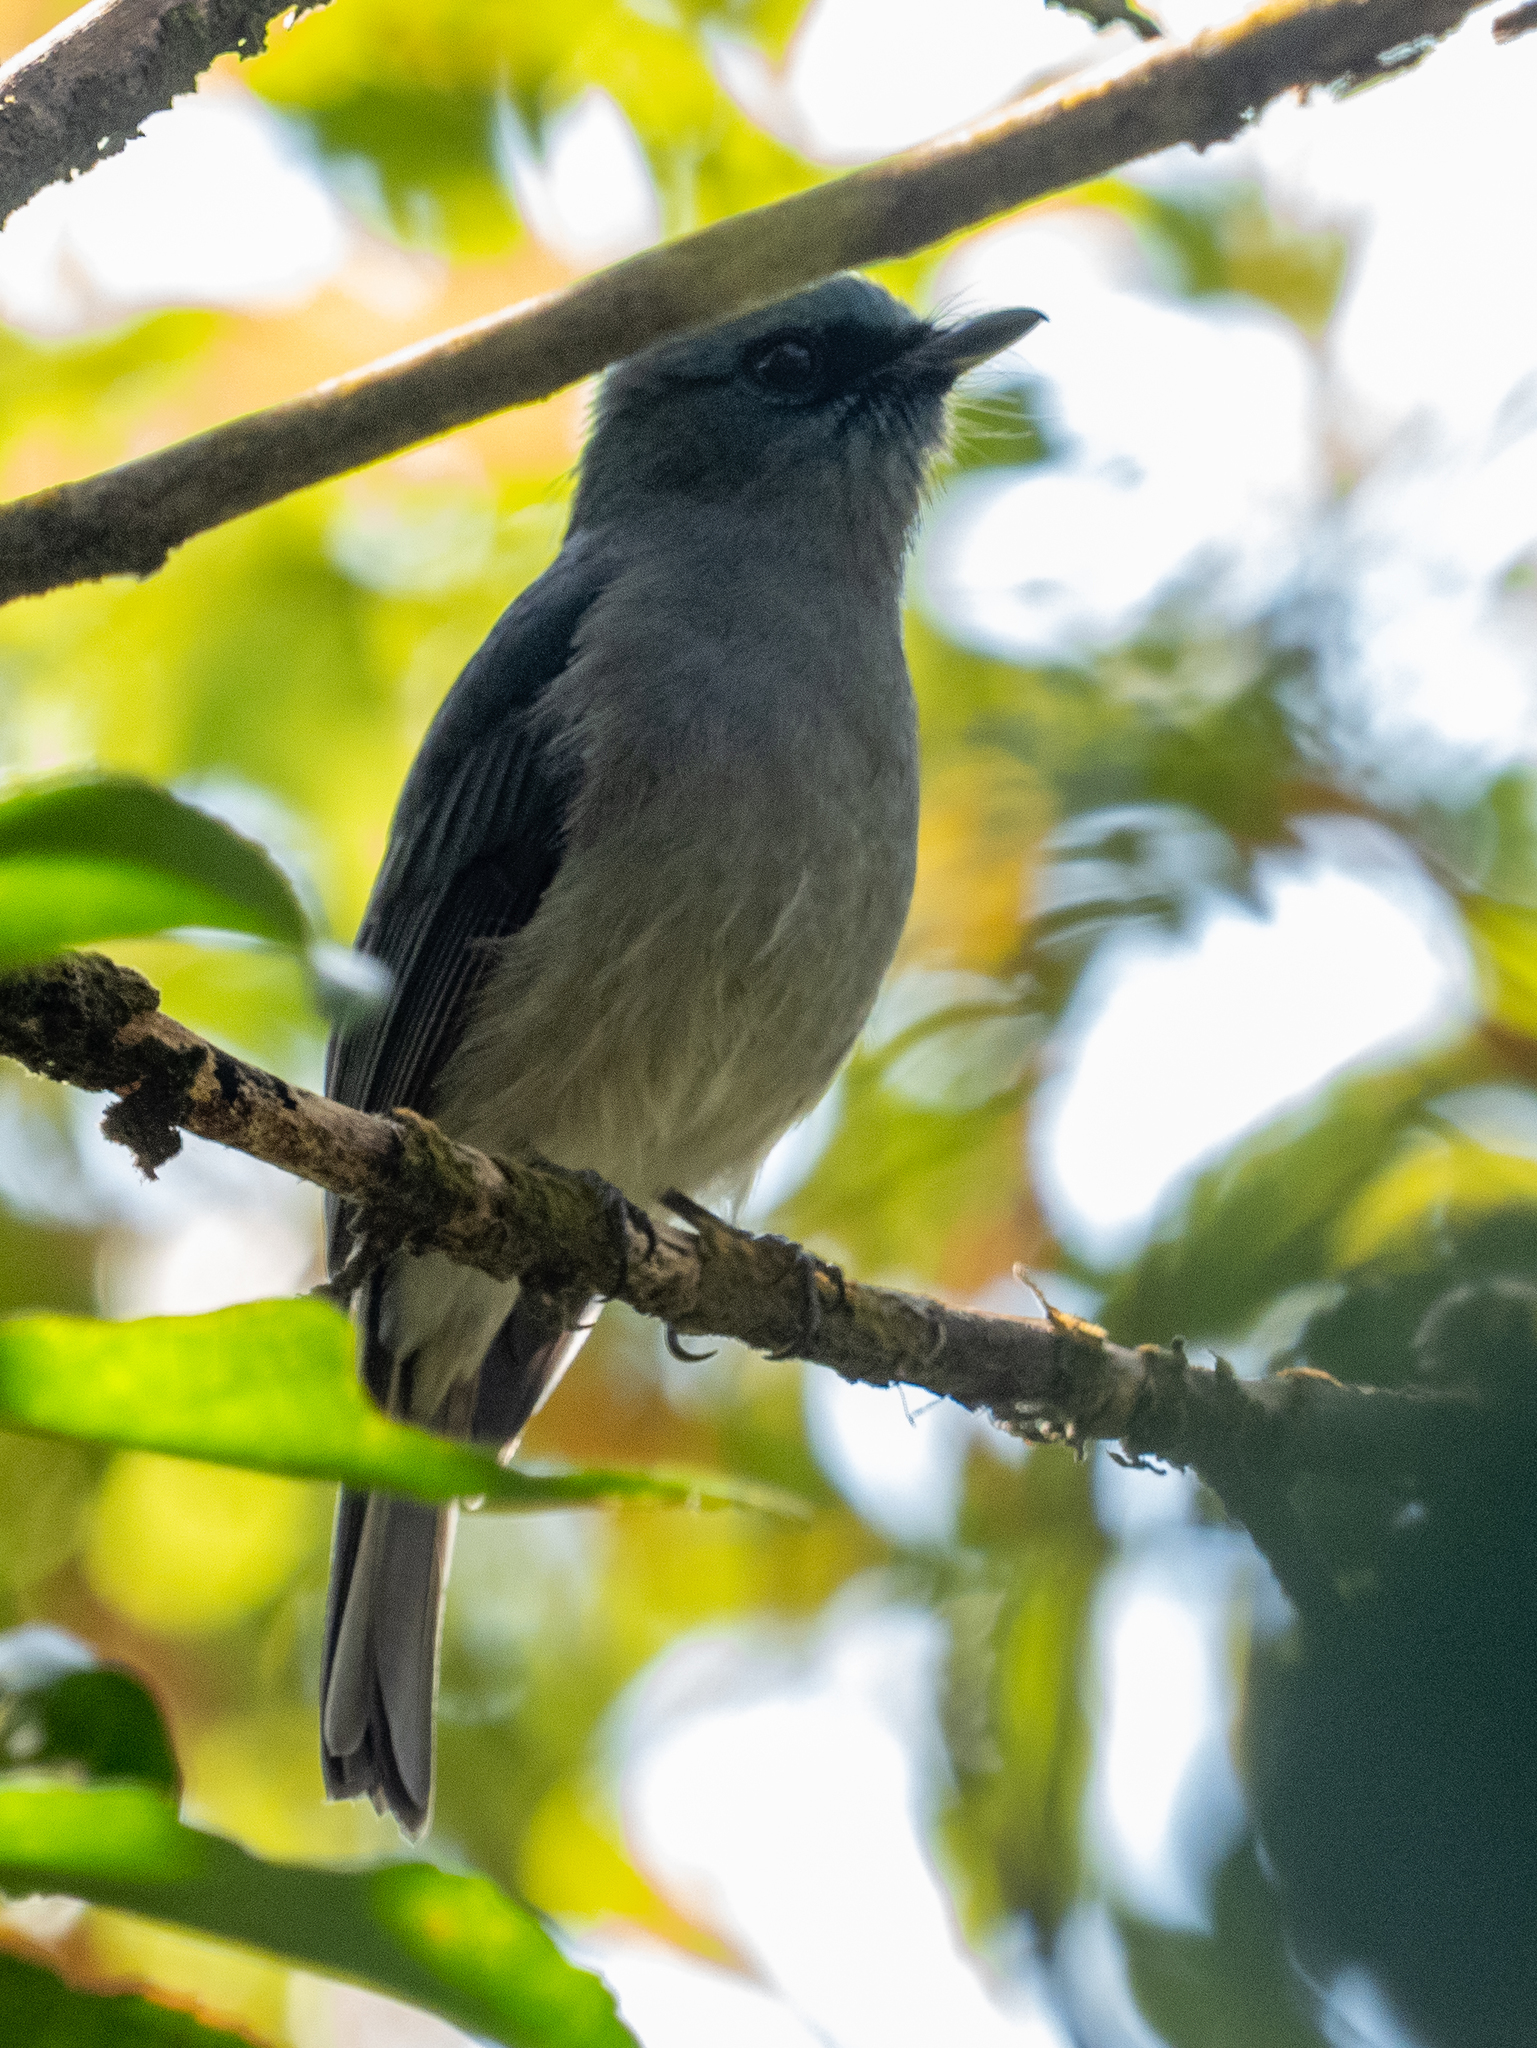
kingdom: Animalia
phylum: Chordata
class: Aves
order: Passeriformes
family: Muscicapidae
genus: Eumyias
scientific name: Eumyias sordidus
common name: Dull-blue flycatcher
